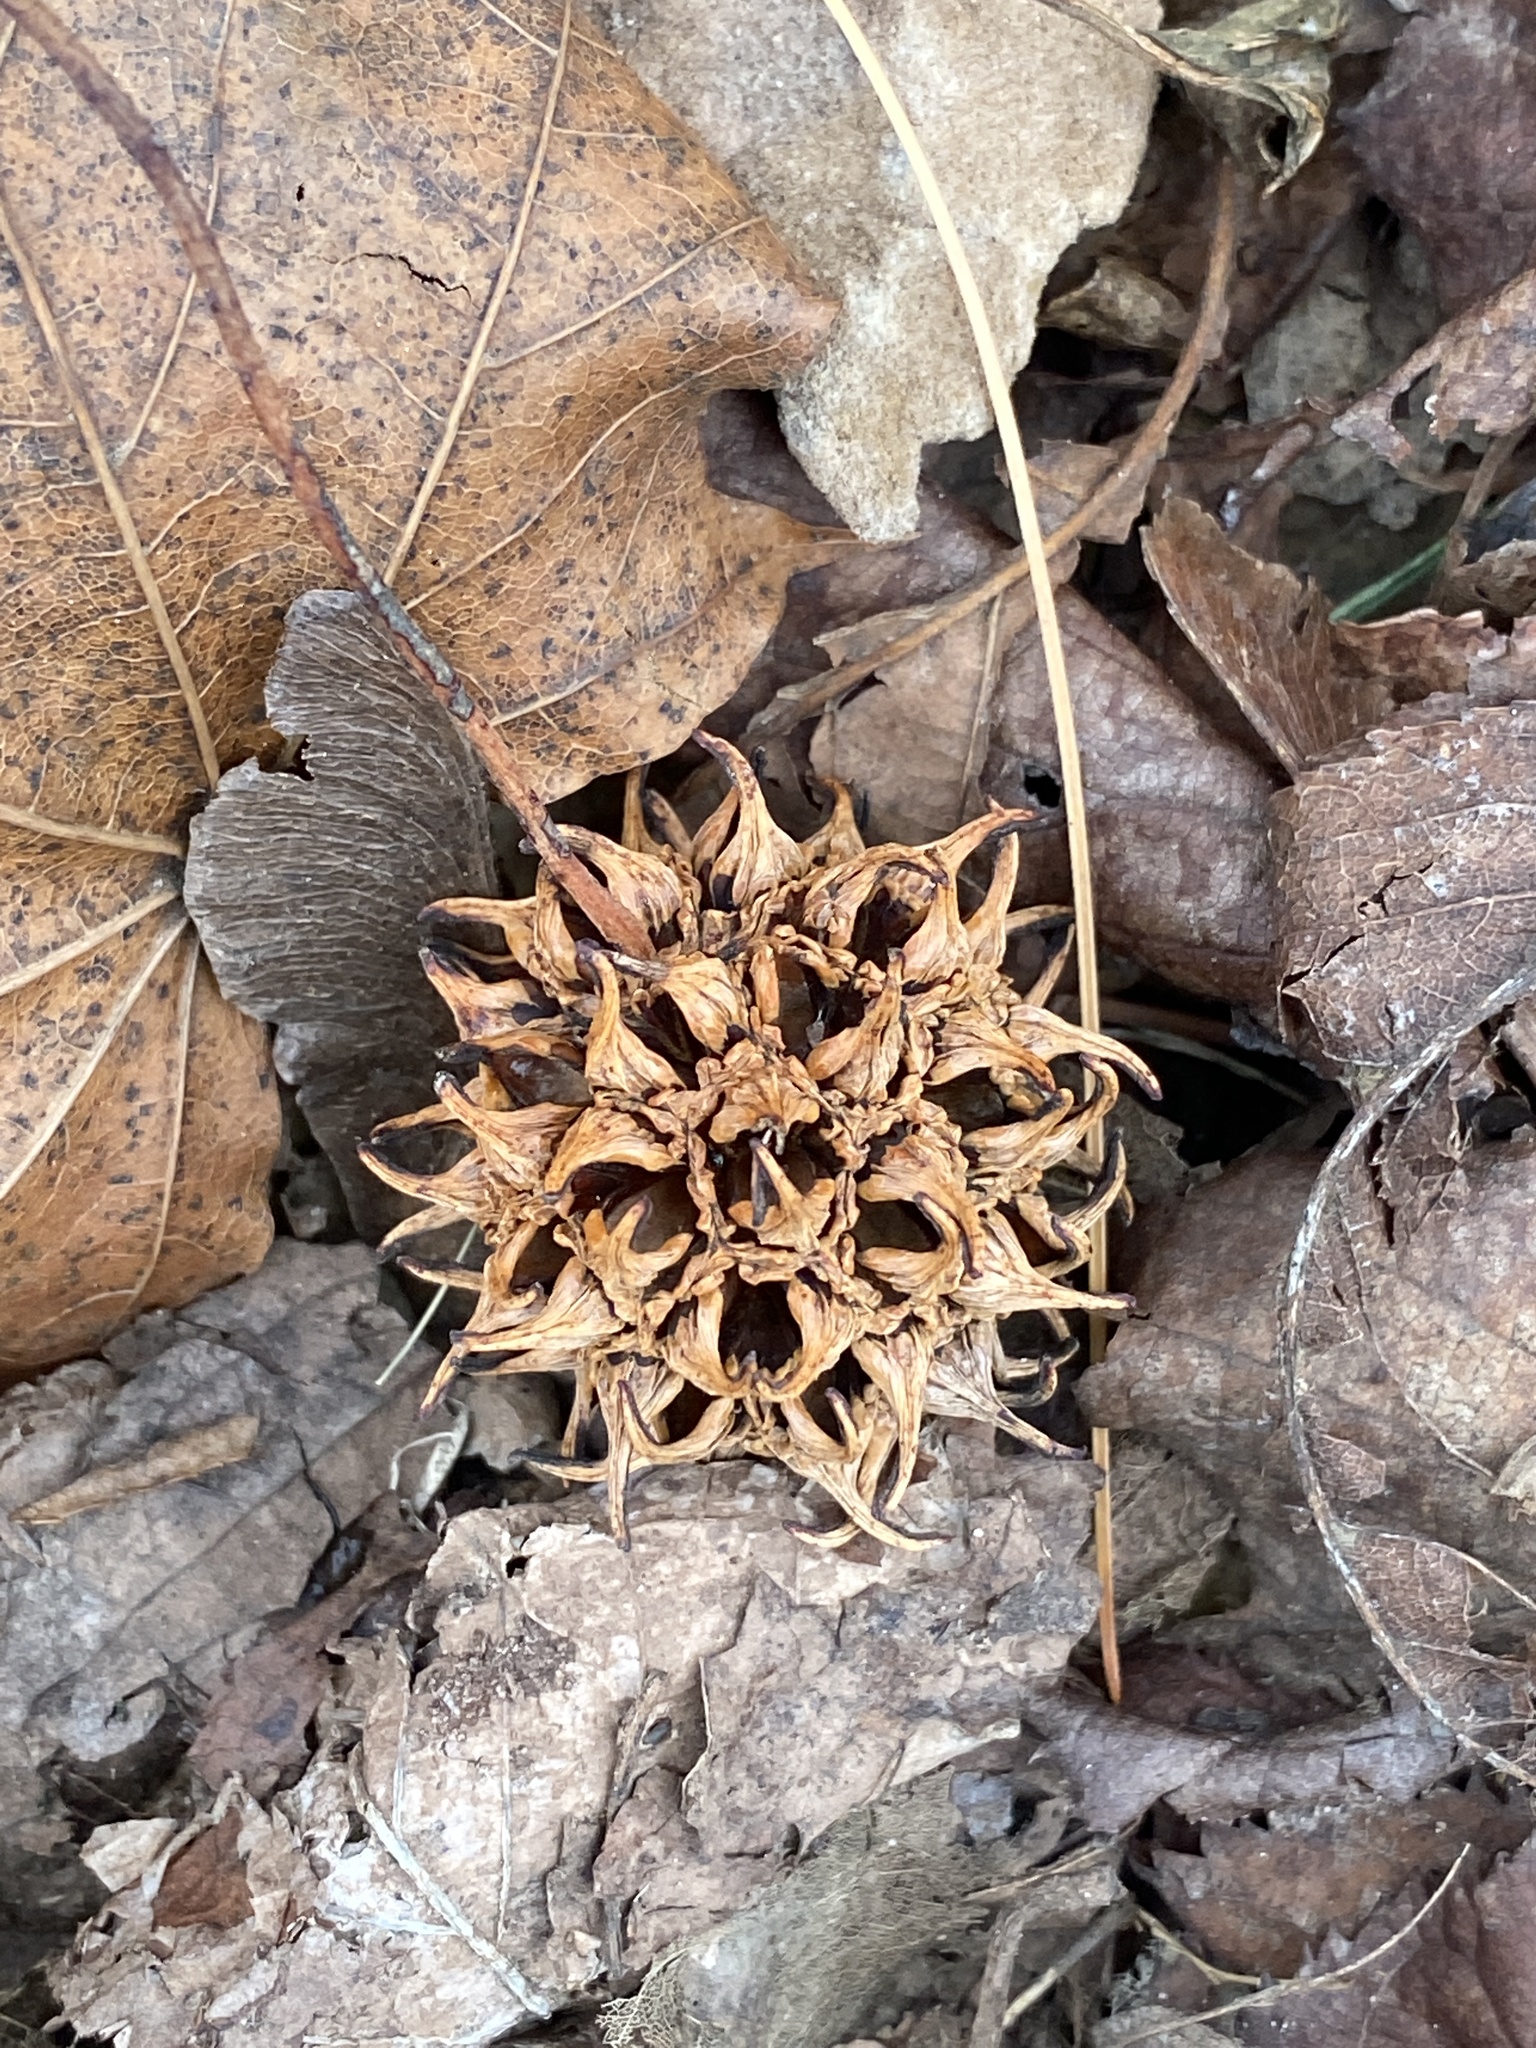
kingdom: Plantae
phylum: Tracheophyta
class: Magnoliopsida
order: Saxifragales
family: Altingiaceae
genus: Liquidambar
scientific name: Liquidambar styraciflua
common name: Sweet gum
